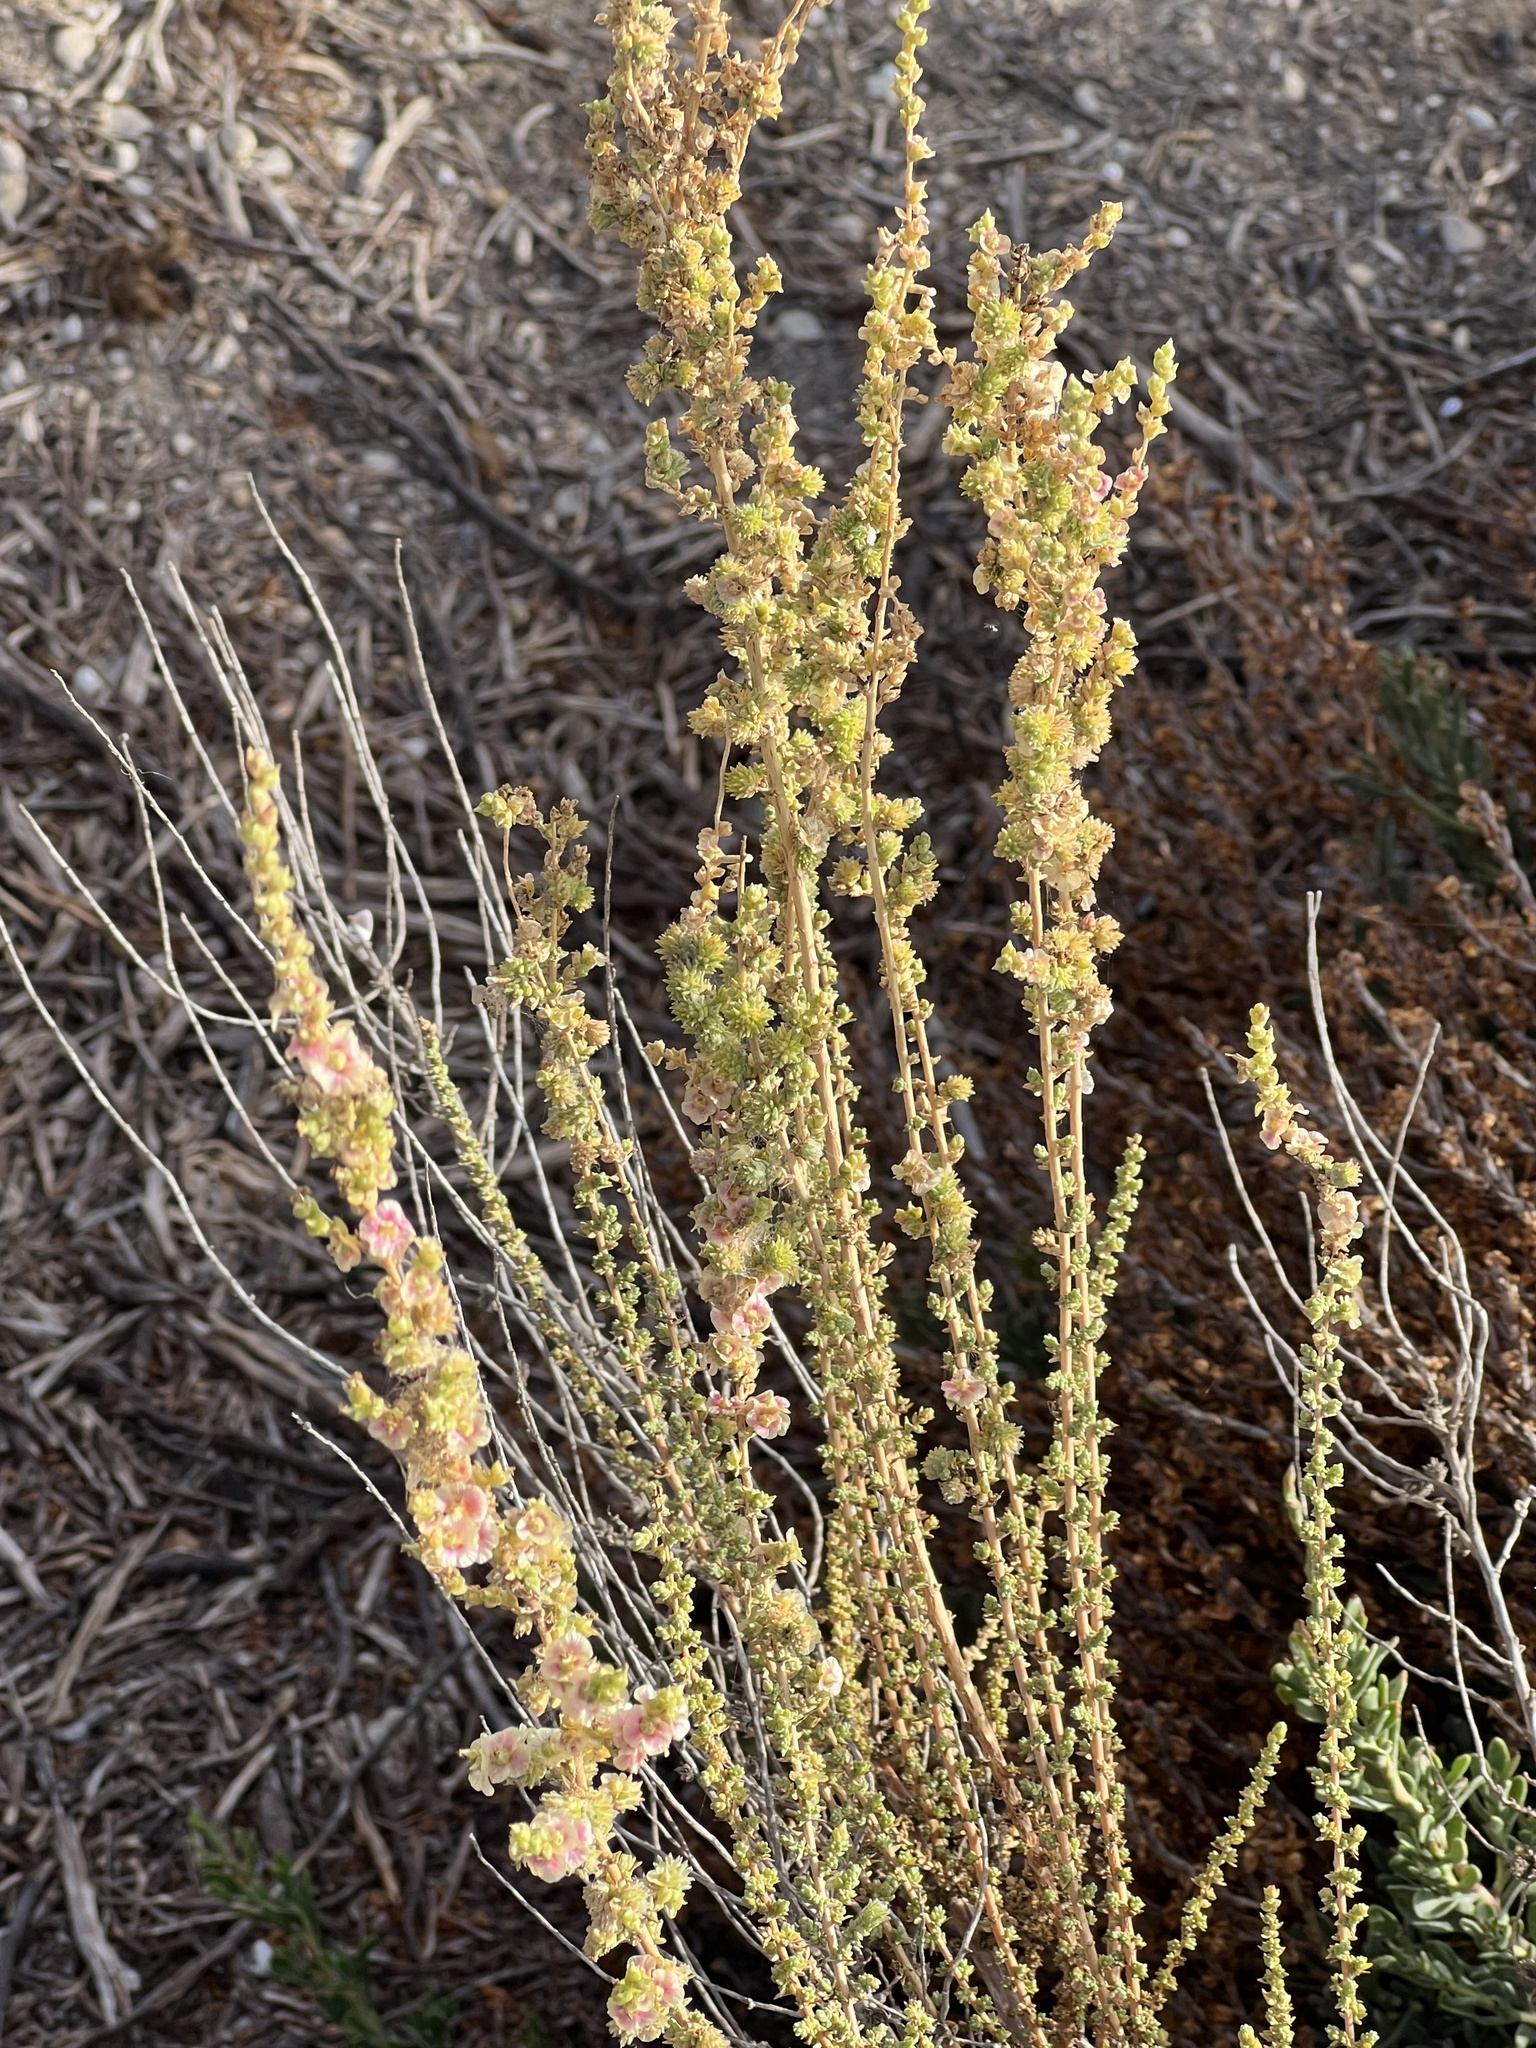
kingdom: Plantae
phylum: Tracheophyta
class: Magnoliopsida
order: Caryophyllales
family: Amaranthaceae
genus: Nitrosalsola
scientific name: Nitrosalsola vermiculata
